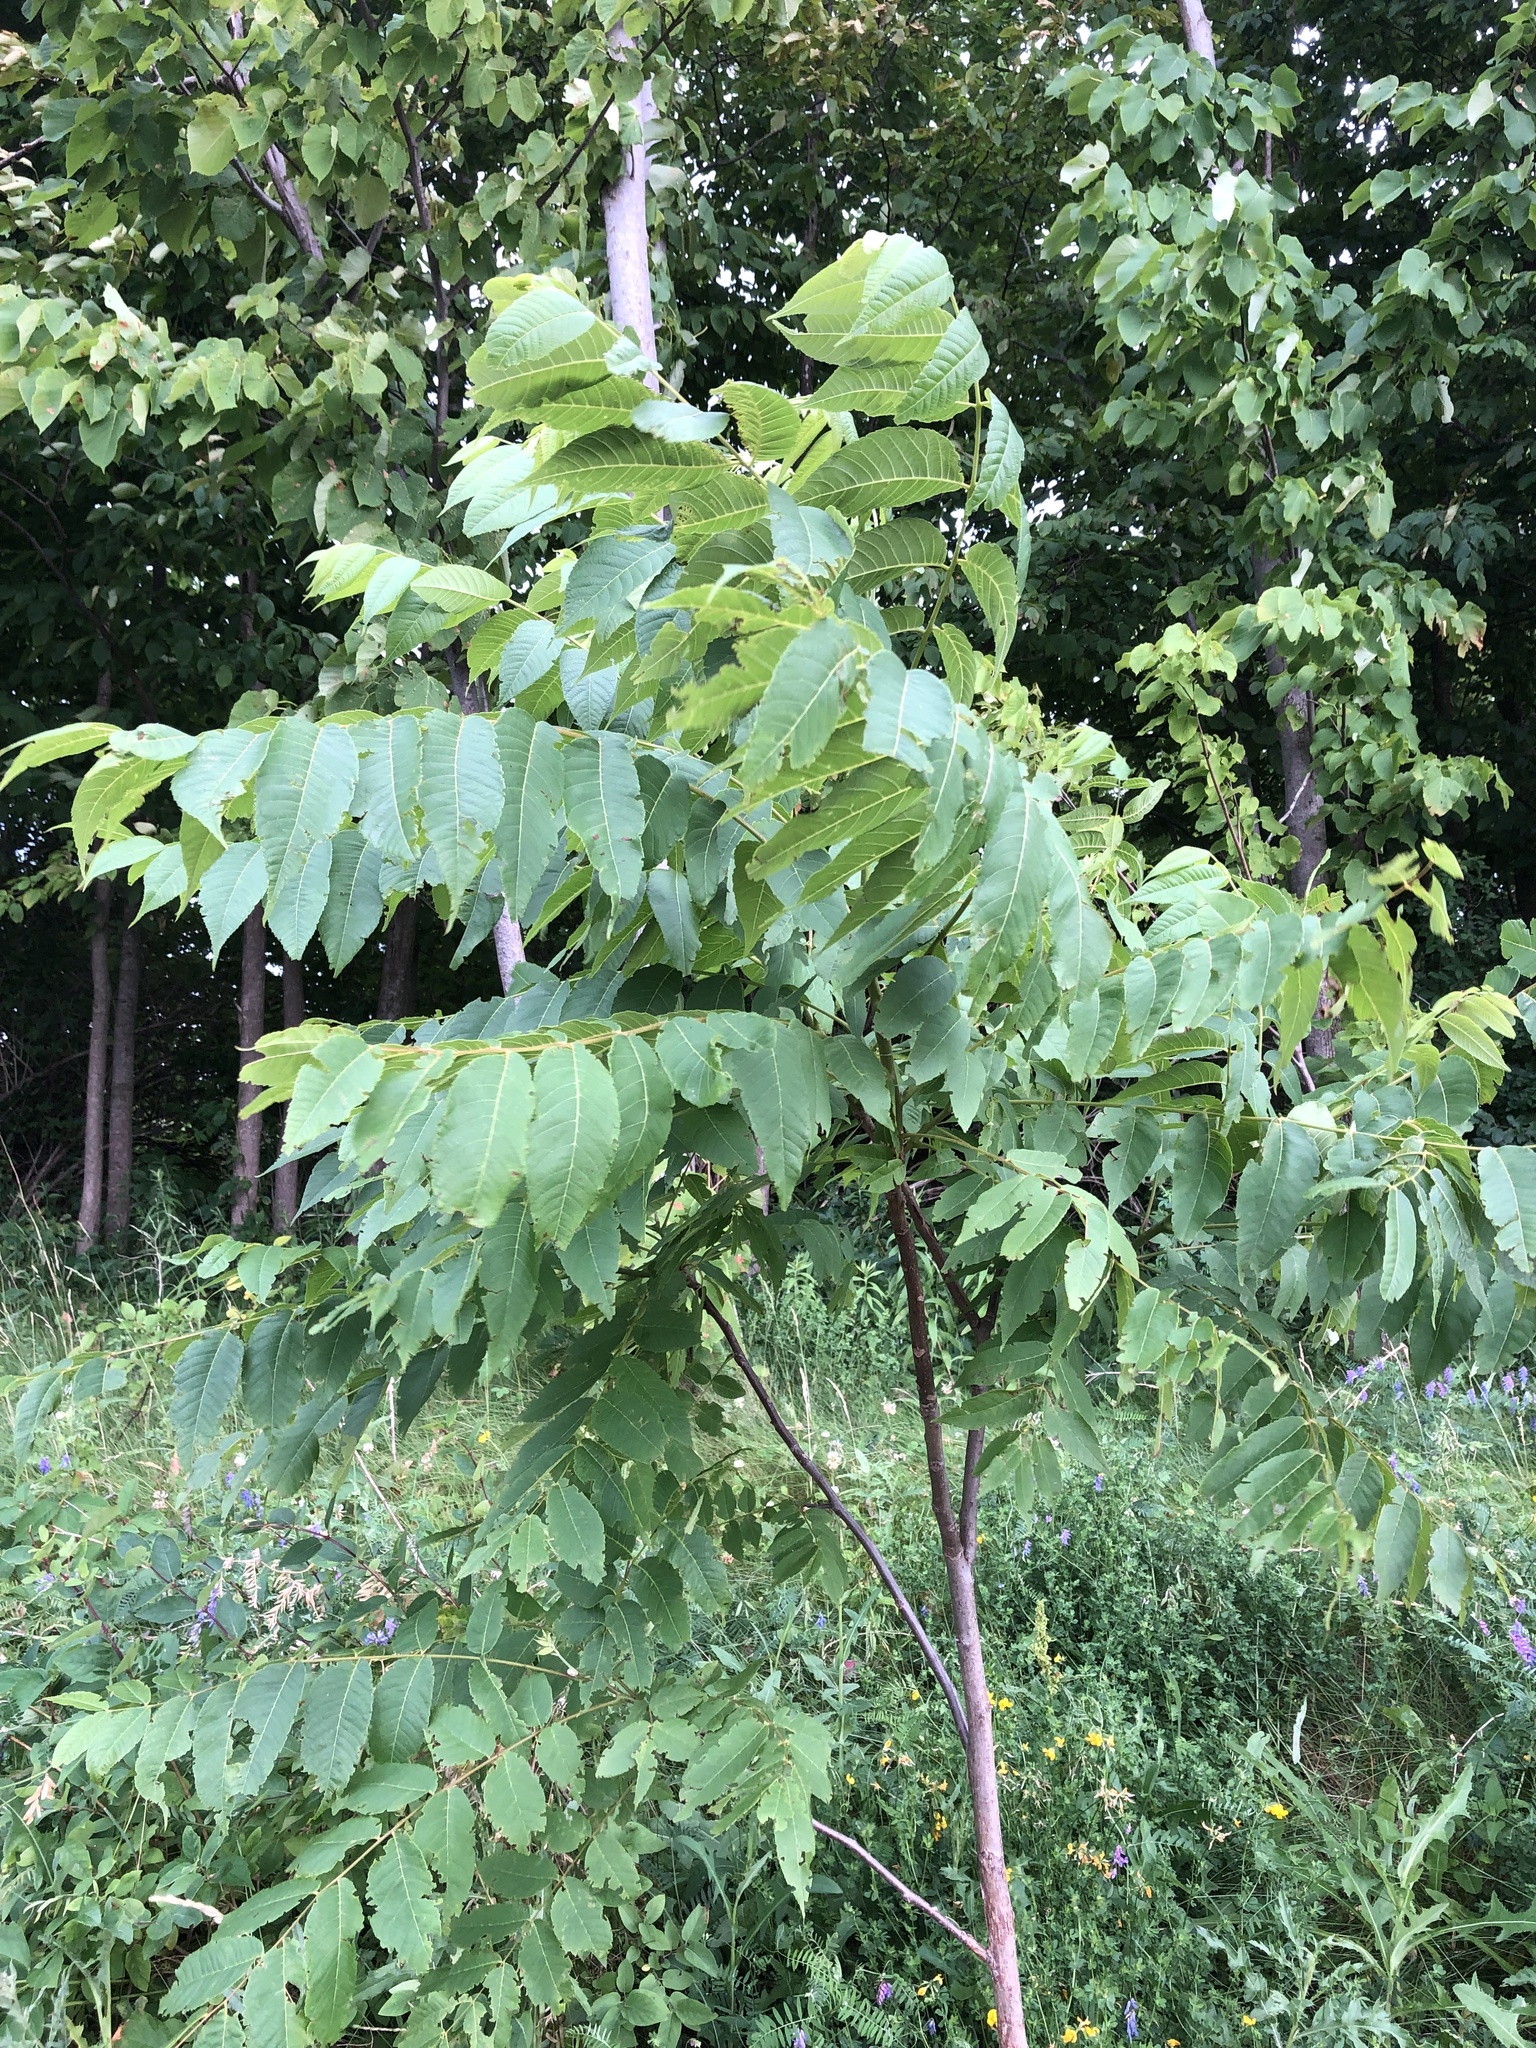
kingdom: Plantae
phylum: Tracheophyta
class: Magnoliopsida
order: Fagales
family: Juglandaceae
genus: Juglans
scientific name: Juglans nigra
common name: Black walnut
